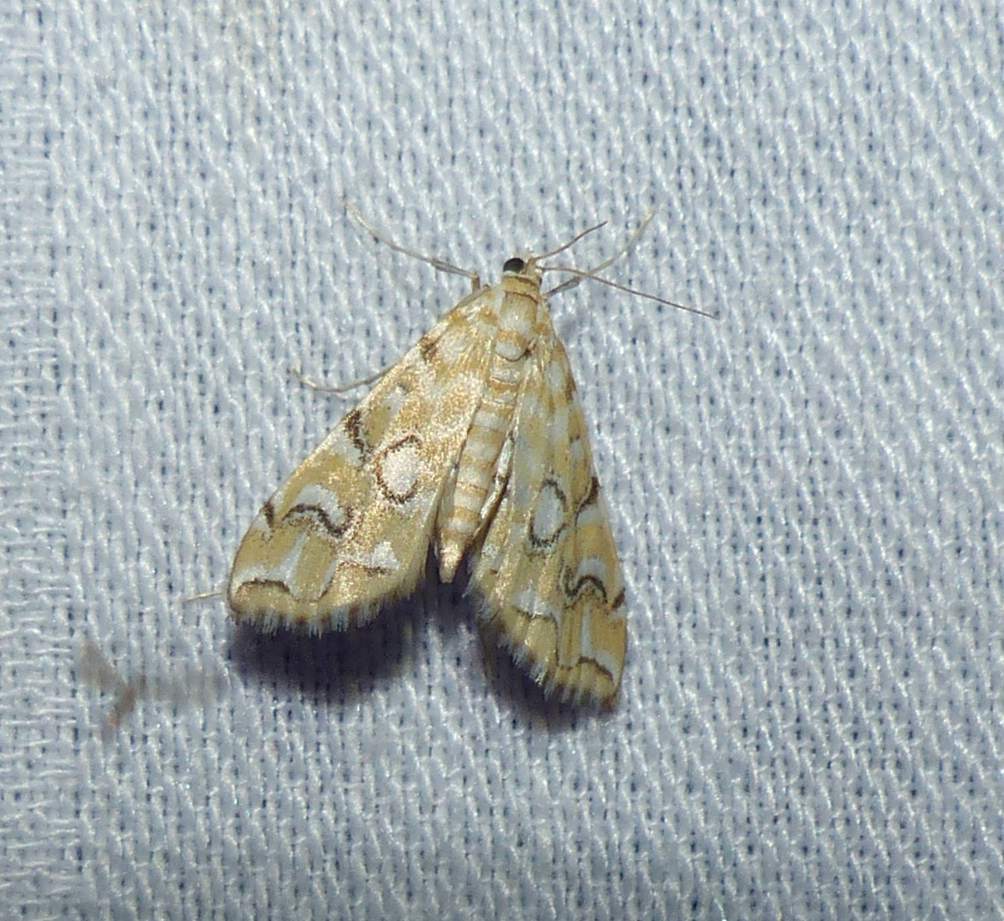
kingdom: Animalia
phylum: Arthropoda
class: Insecta
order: Lepidoptera
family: Crambidae
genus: Elophila
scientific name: Elophila icciusalis
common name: Pondside pyralid moth
